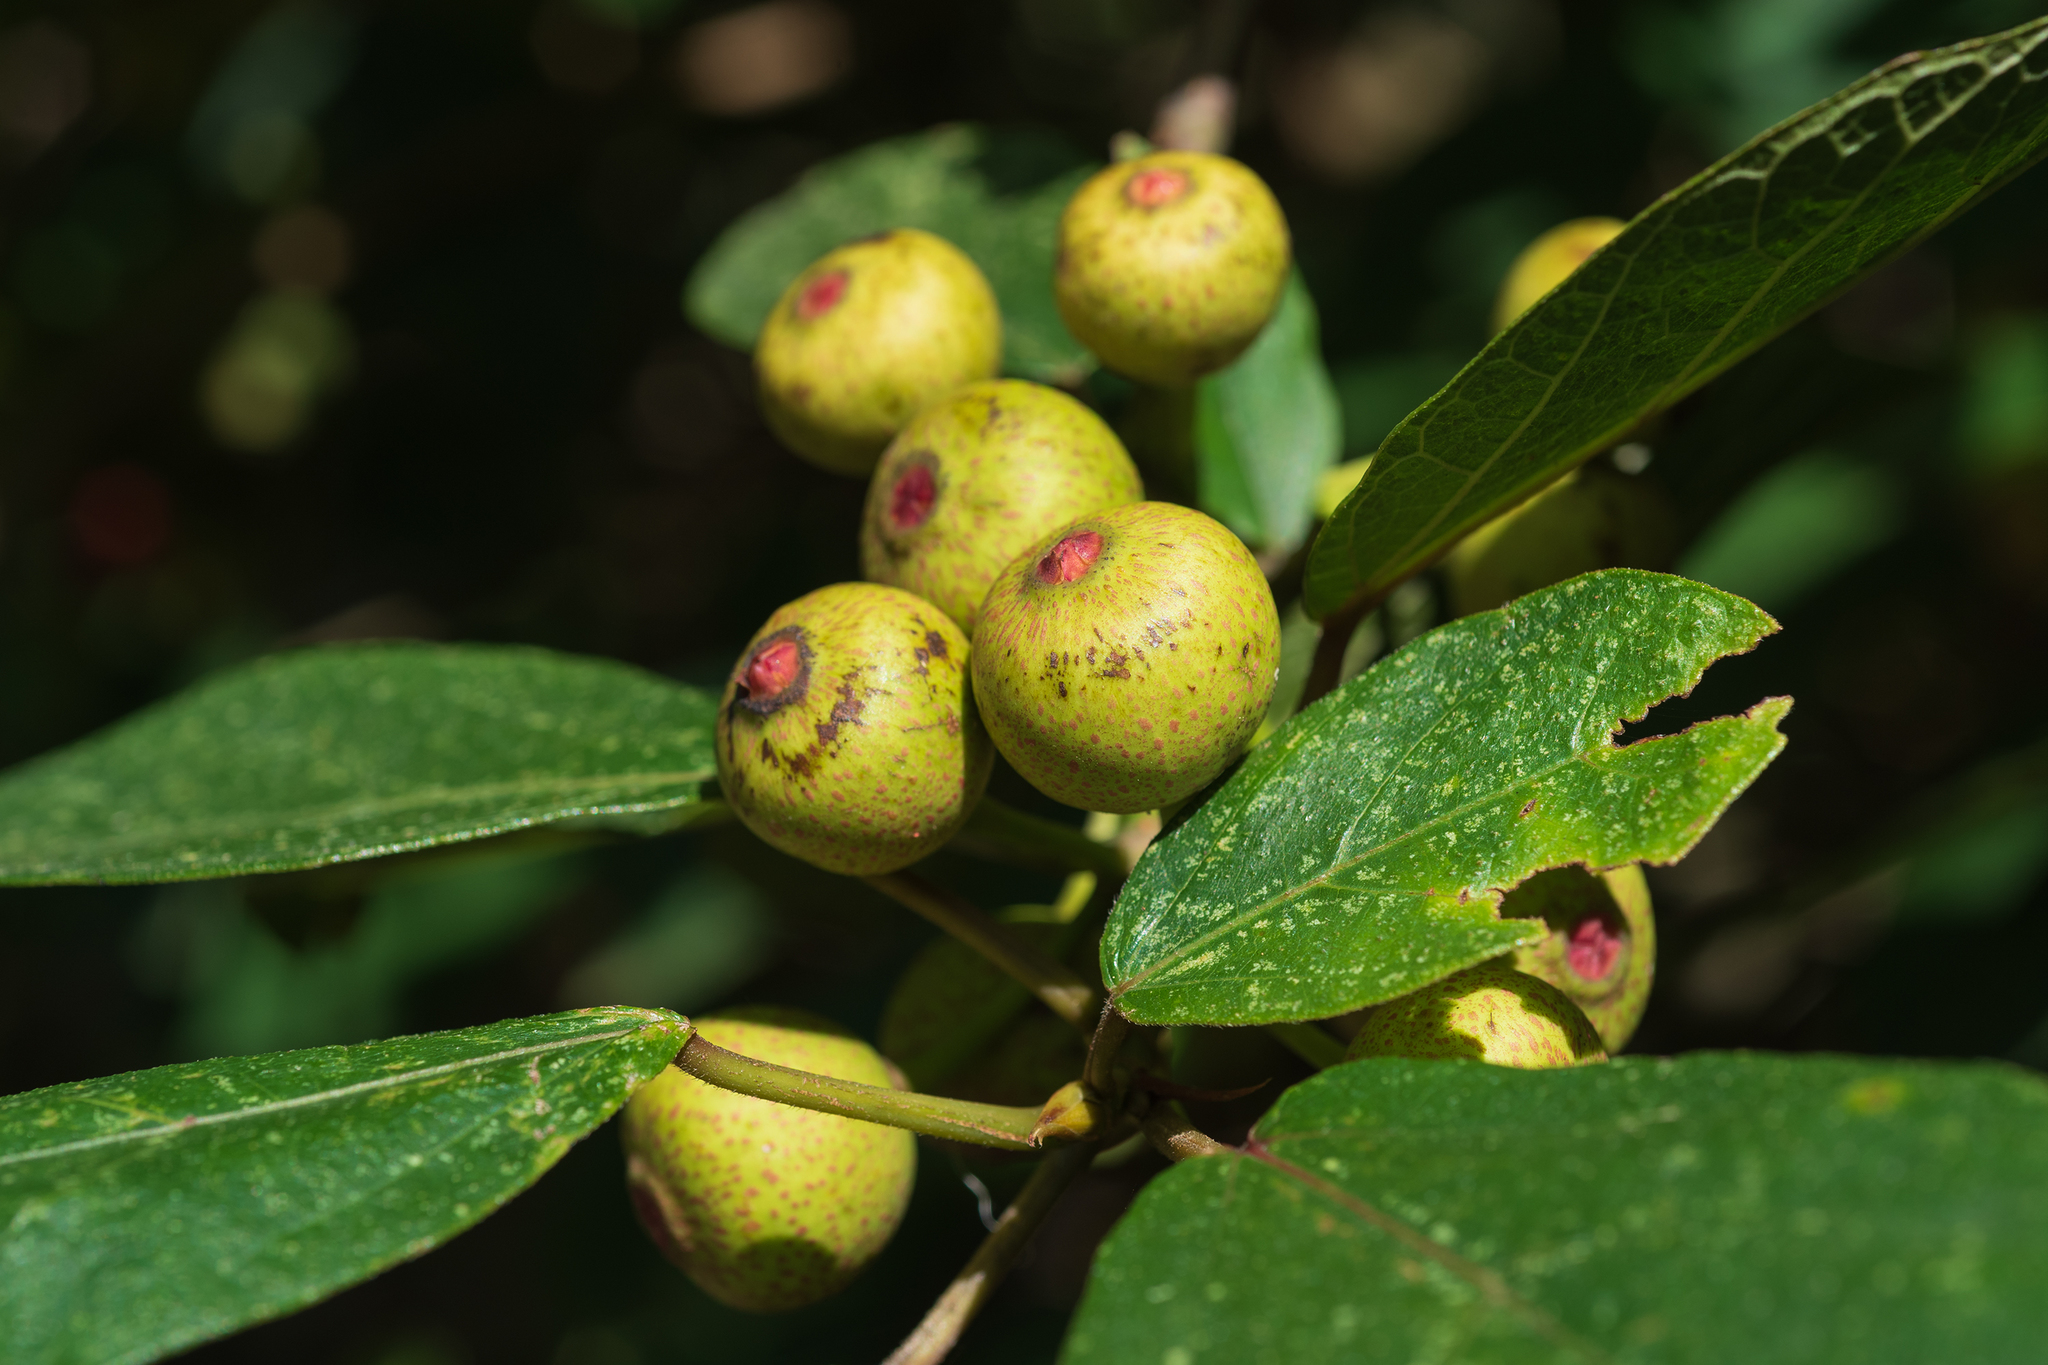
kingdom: Plantae
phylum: Tracheophyta
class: Magnoliopsida
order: Rosales
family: Moraceae
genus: Ficus
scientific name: Ficus erecta
